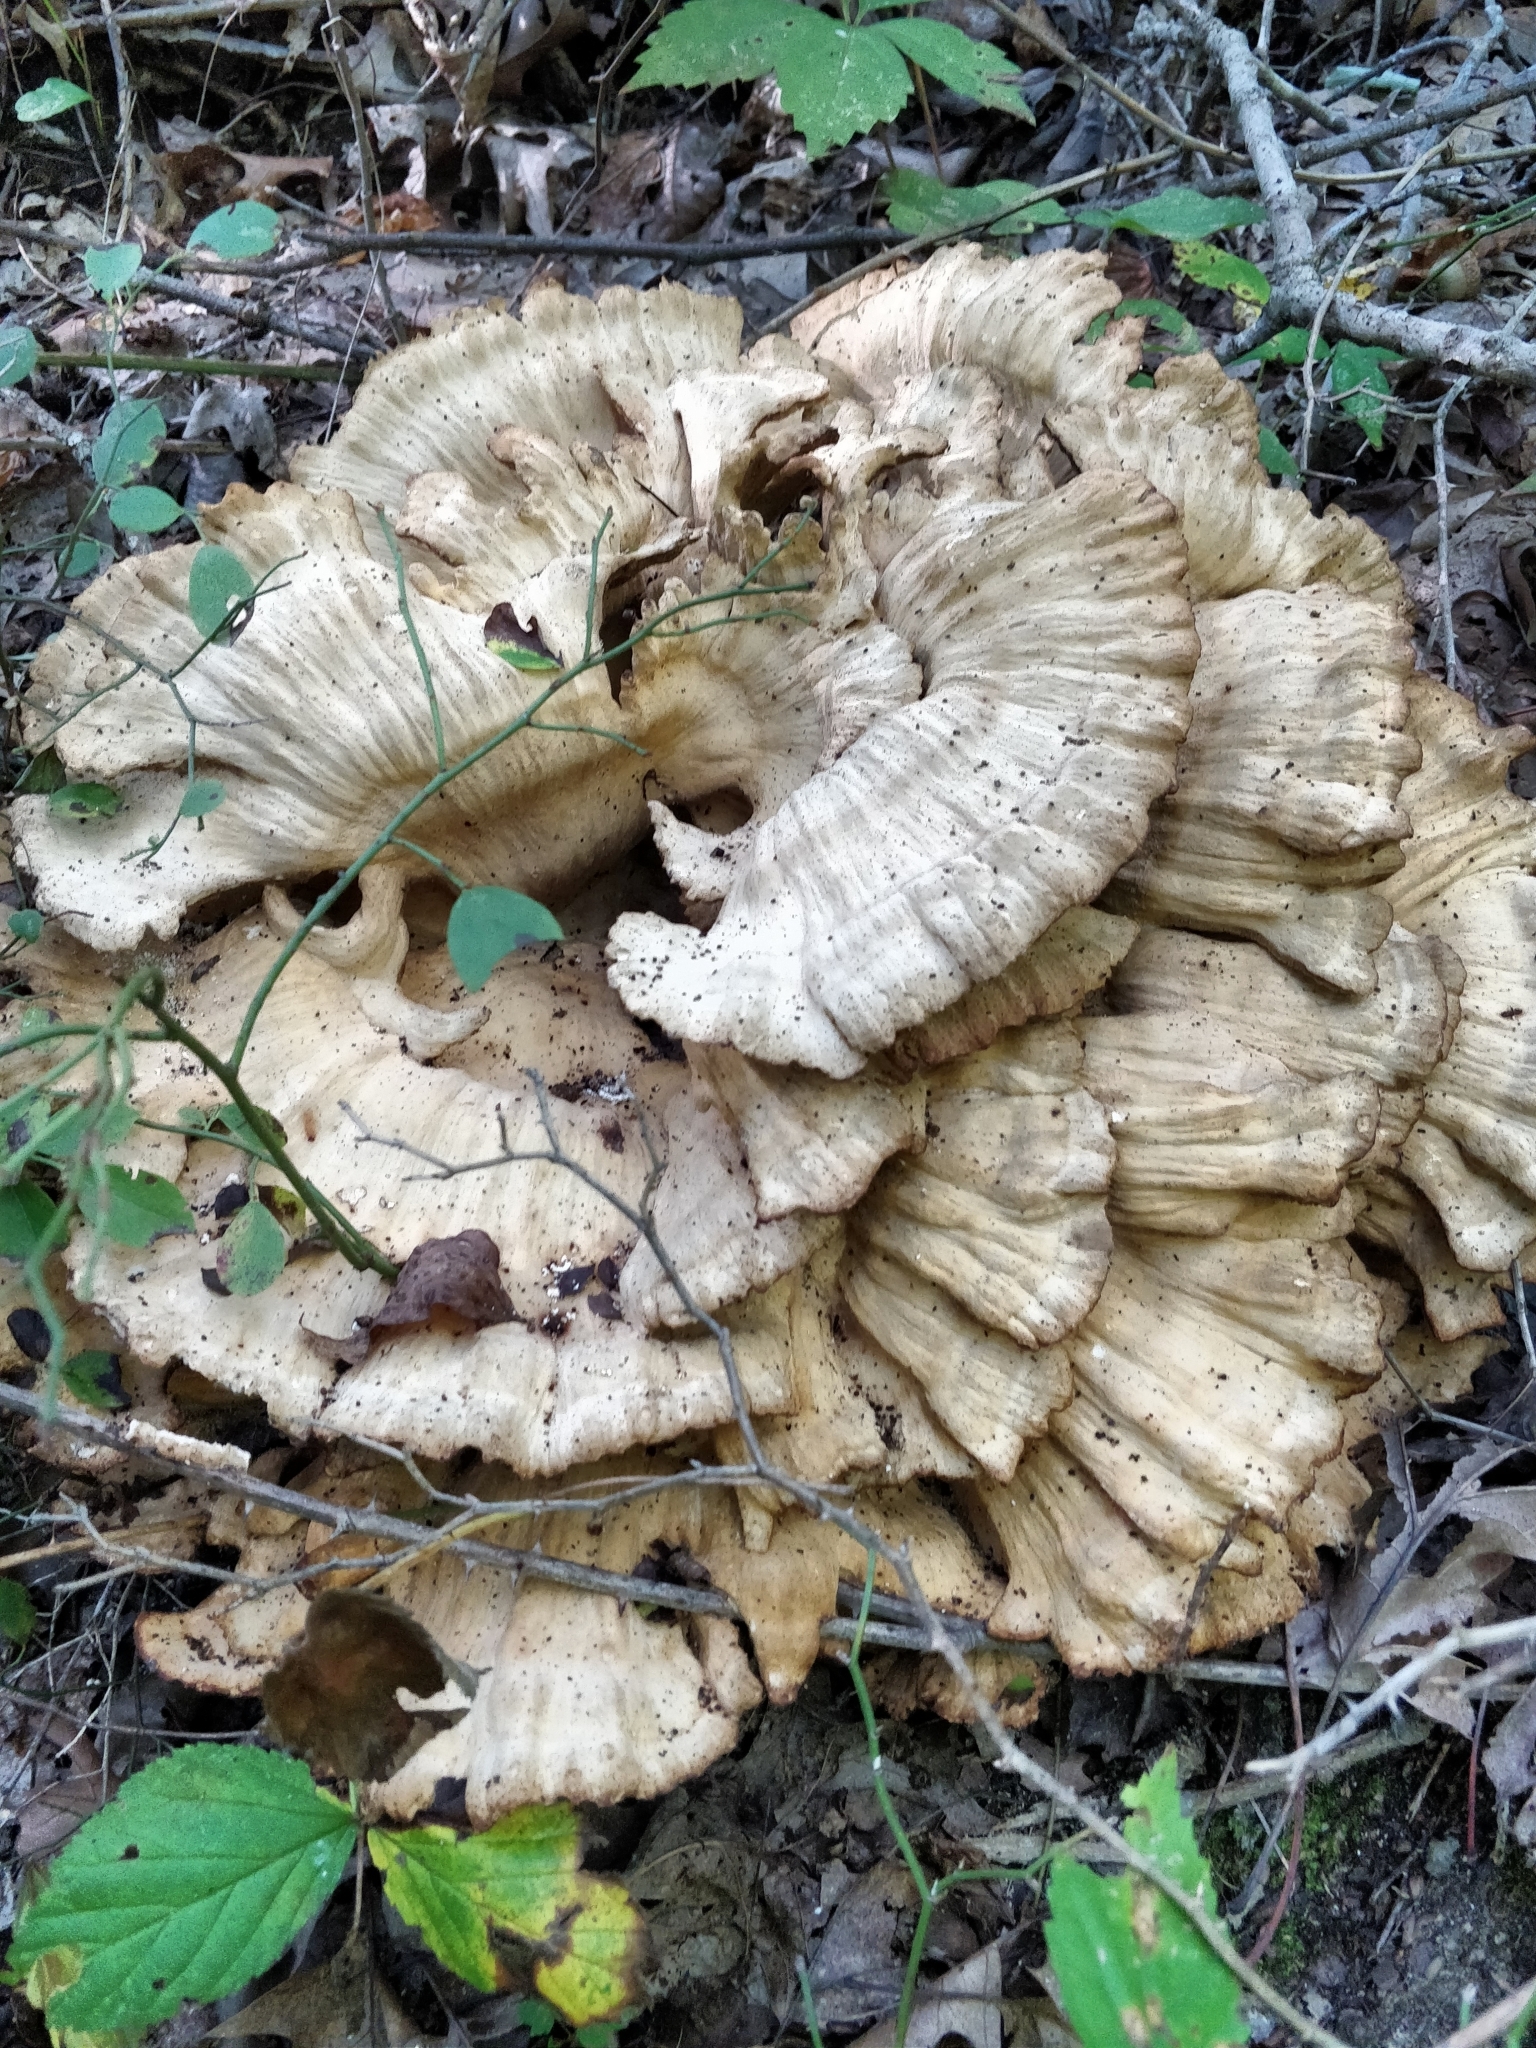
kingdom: Fungi
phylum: Basidiomycota
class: Agaricomycetes
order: Polyporales
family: Meripilaceae
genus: Meripilus
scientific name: Meripilus sumstinei
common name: Black-staining polypore
